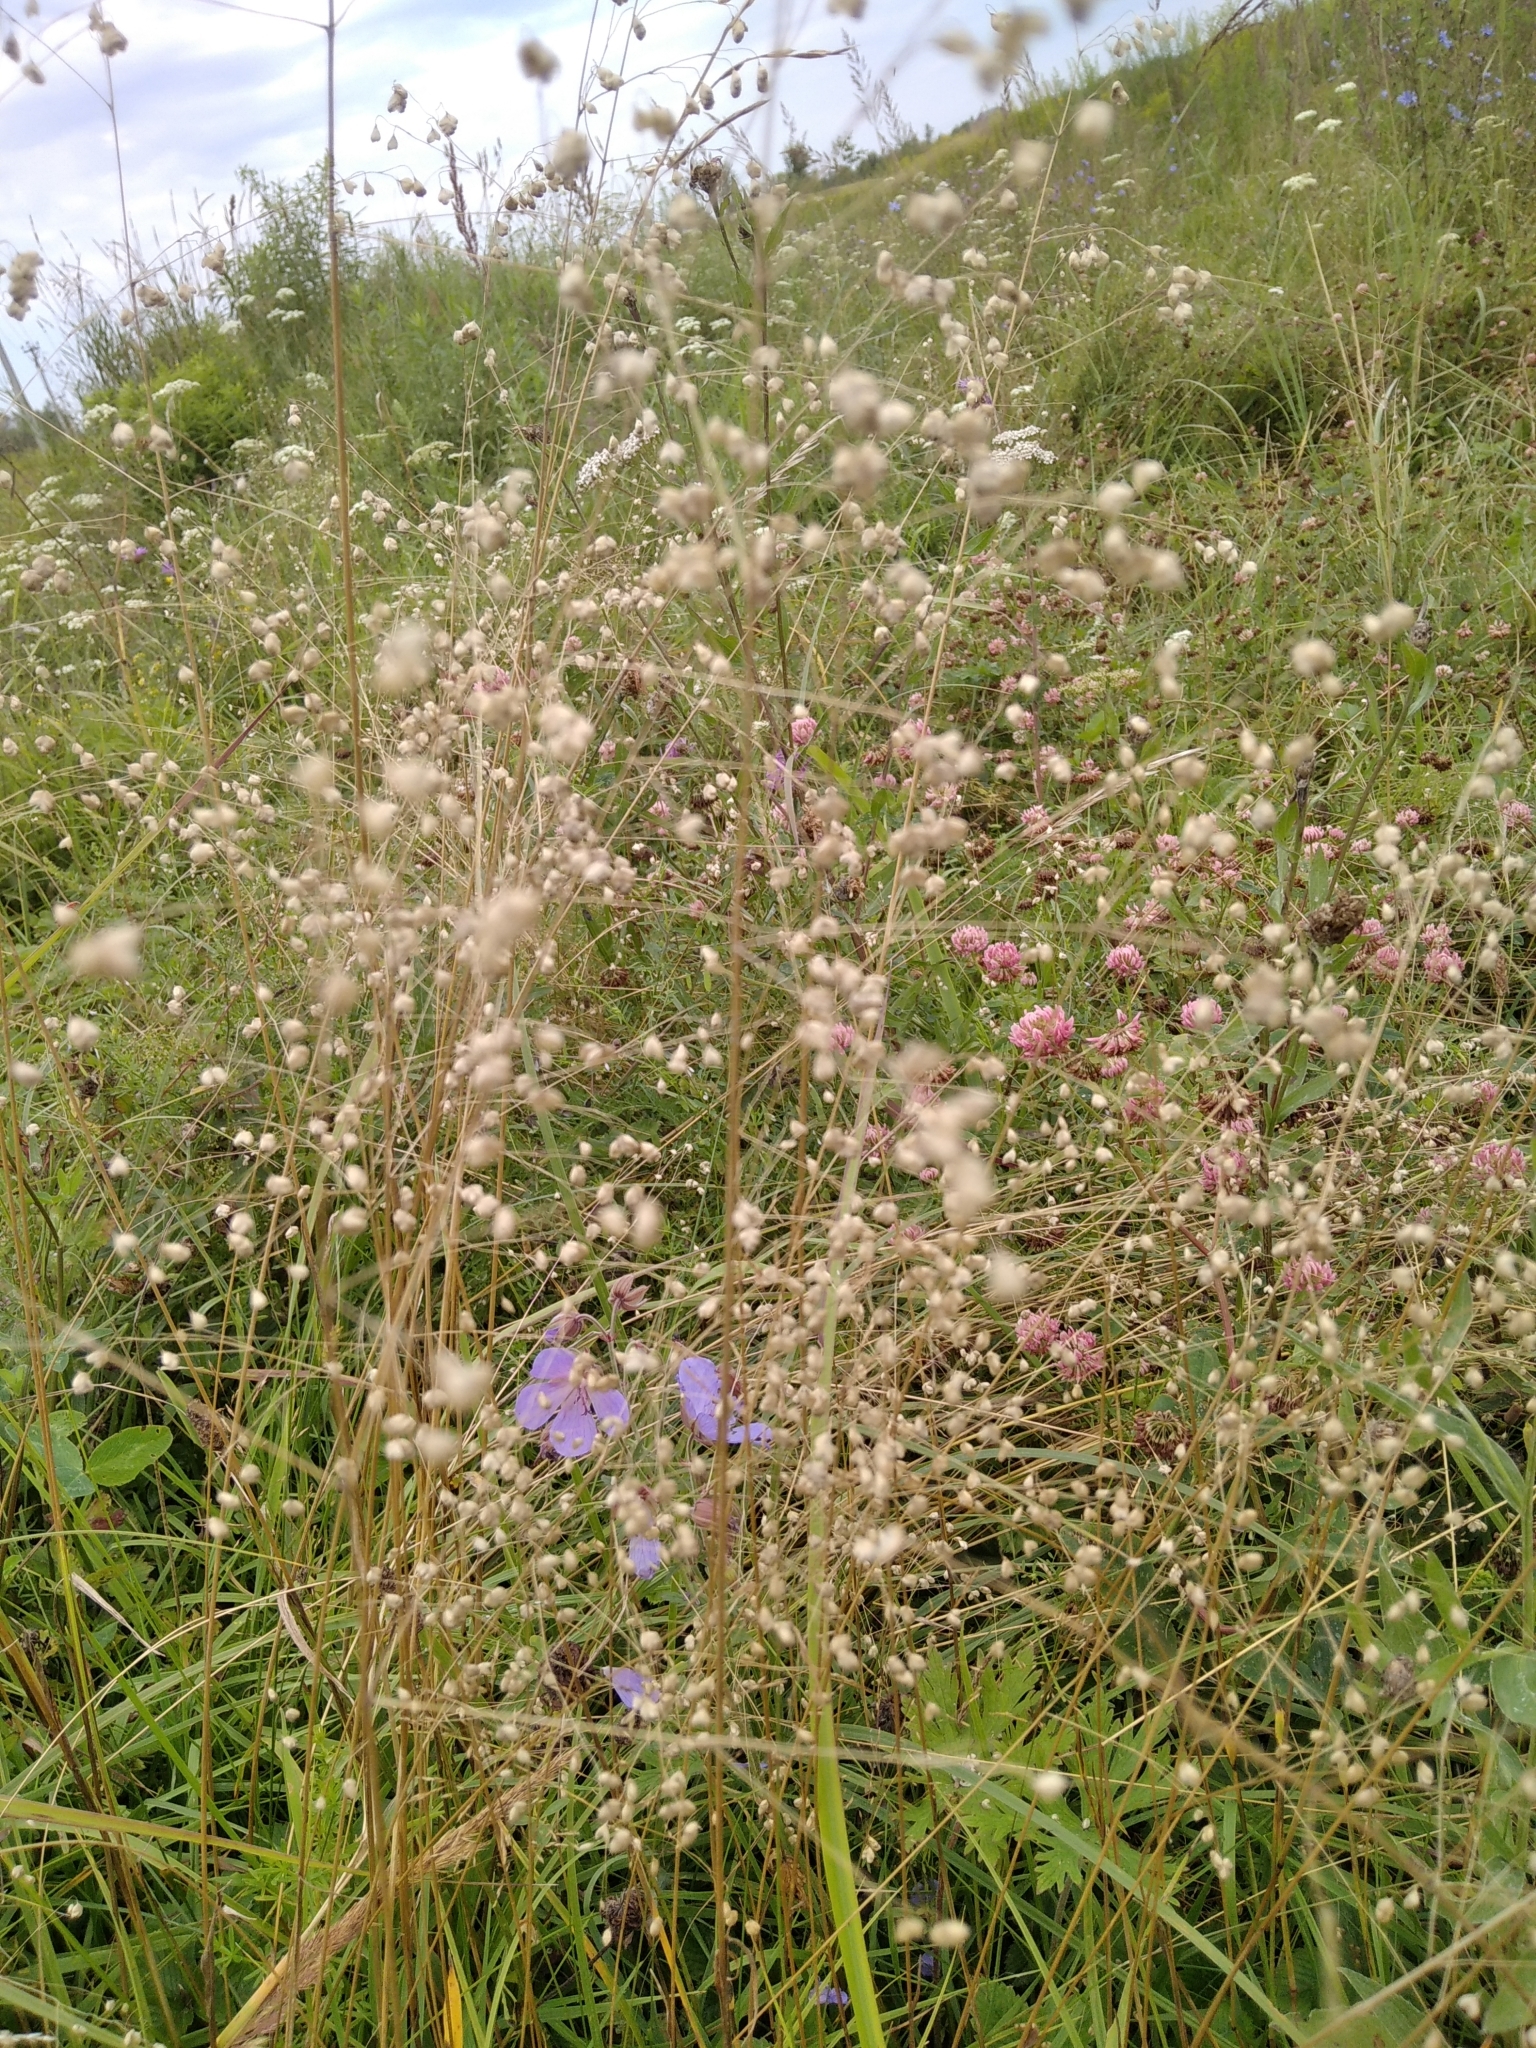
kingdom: Plantae
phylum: Tracheophyta
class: Liliopsida
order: Poales
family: Poaceae
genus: Briza
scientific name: Briza media
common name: Quaking grass
